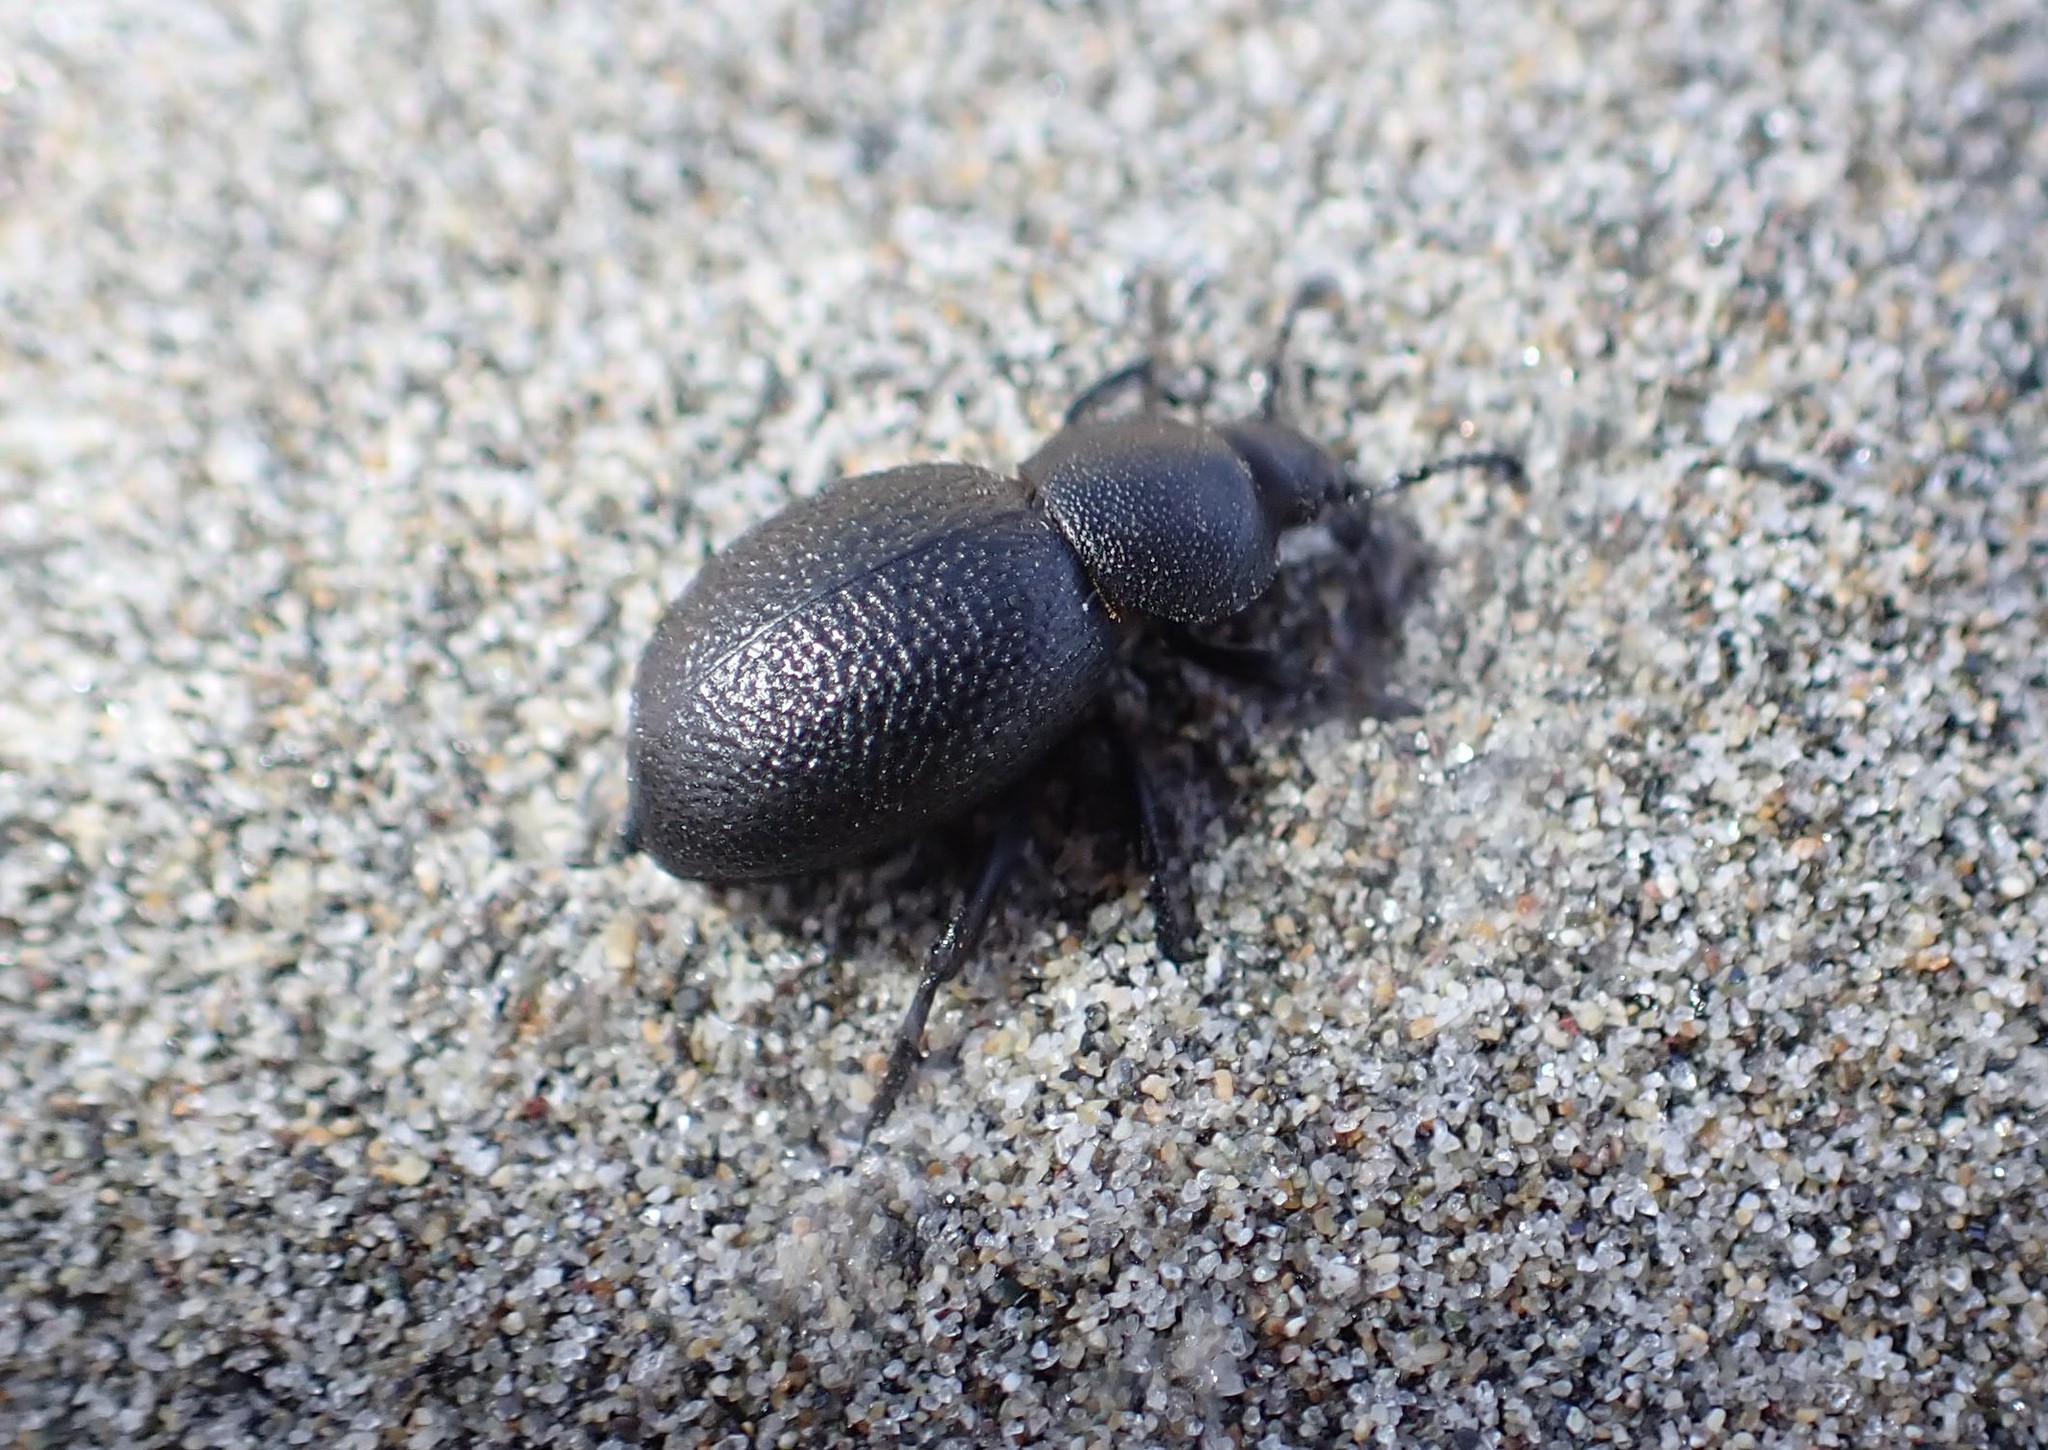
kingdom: Animalia
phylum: Arthropoda
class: Insecta
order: Coleoptera
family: Tenebrionidae
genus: Eleodes
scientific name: Eleodes scabrosa
